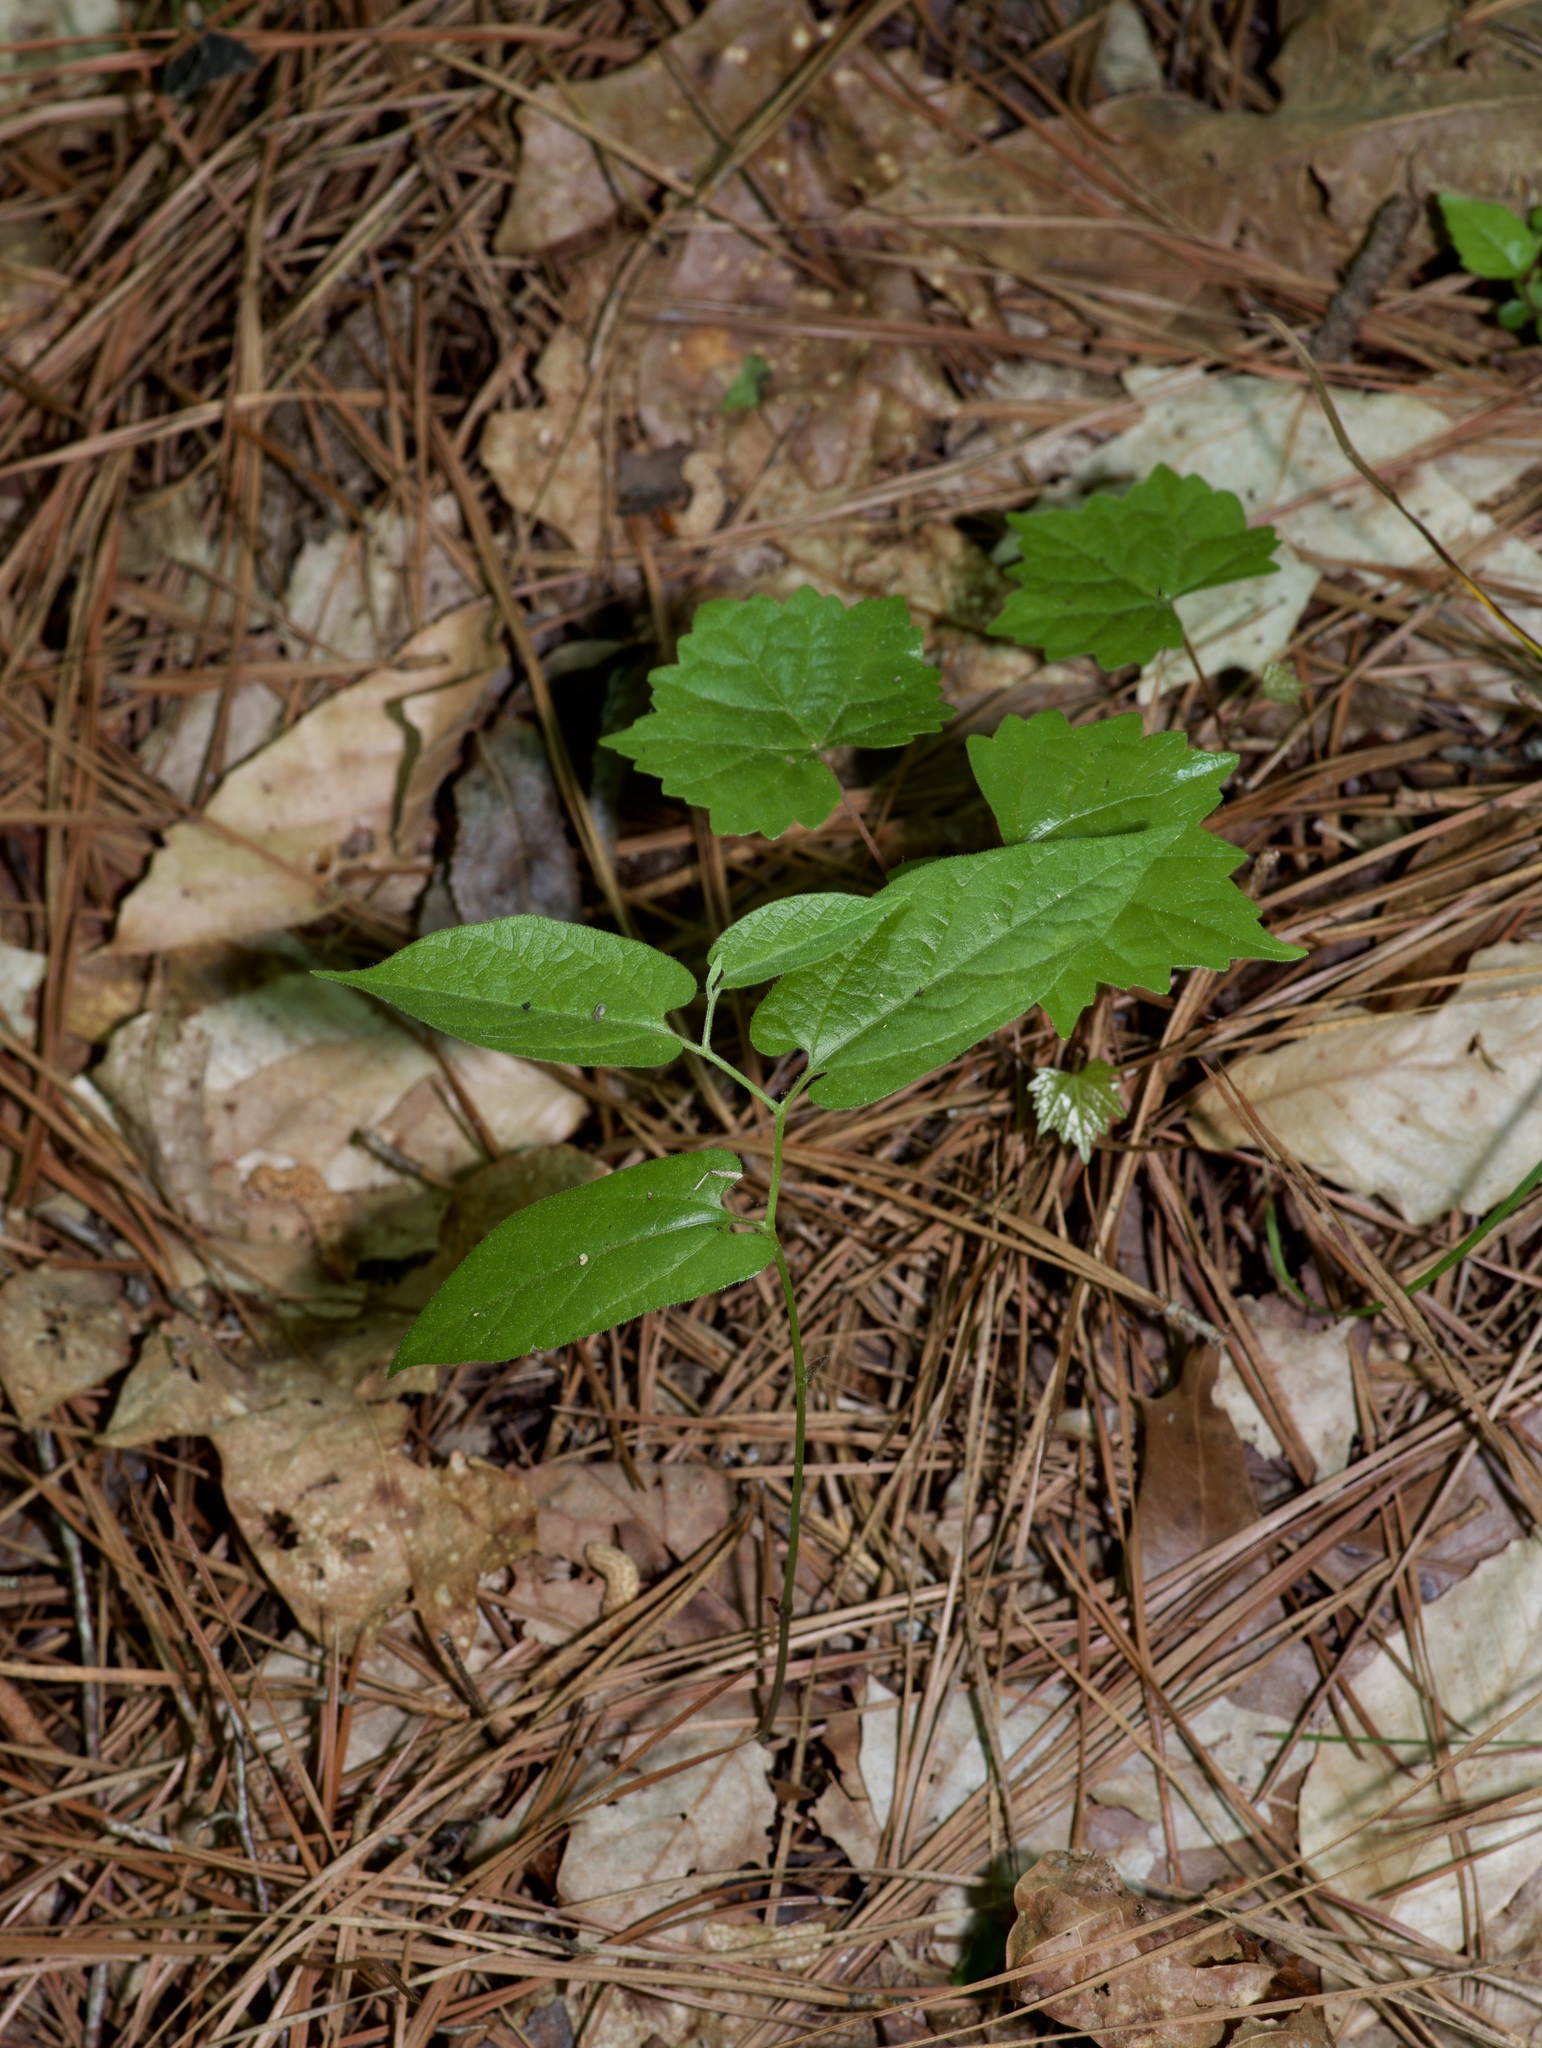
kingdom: Plantae
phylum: Tracheophyta
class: Magnoliopsida
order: Piperales
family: Aristolochiaceae
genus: Endodeca
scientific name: Endodeca serpentaria
